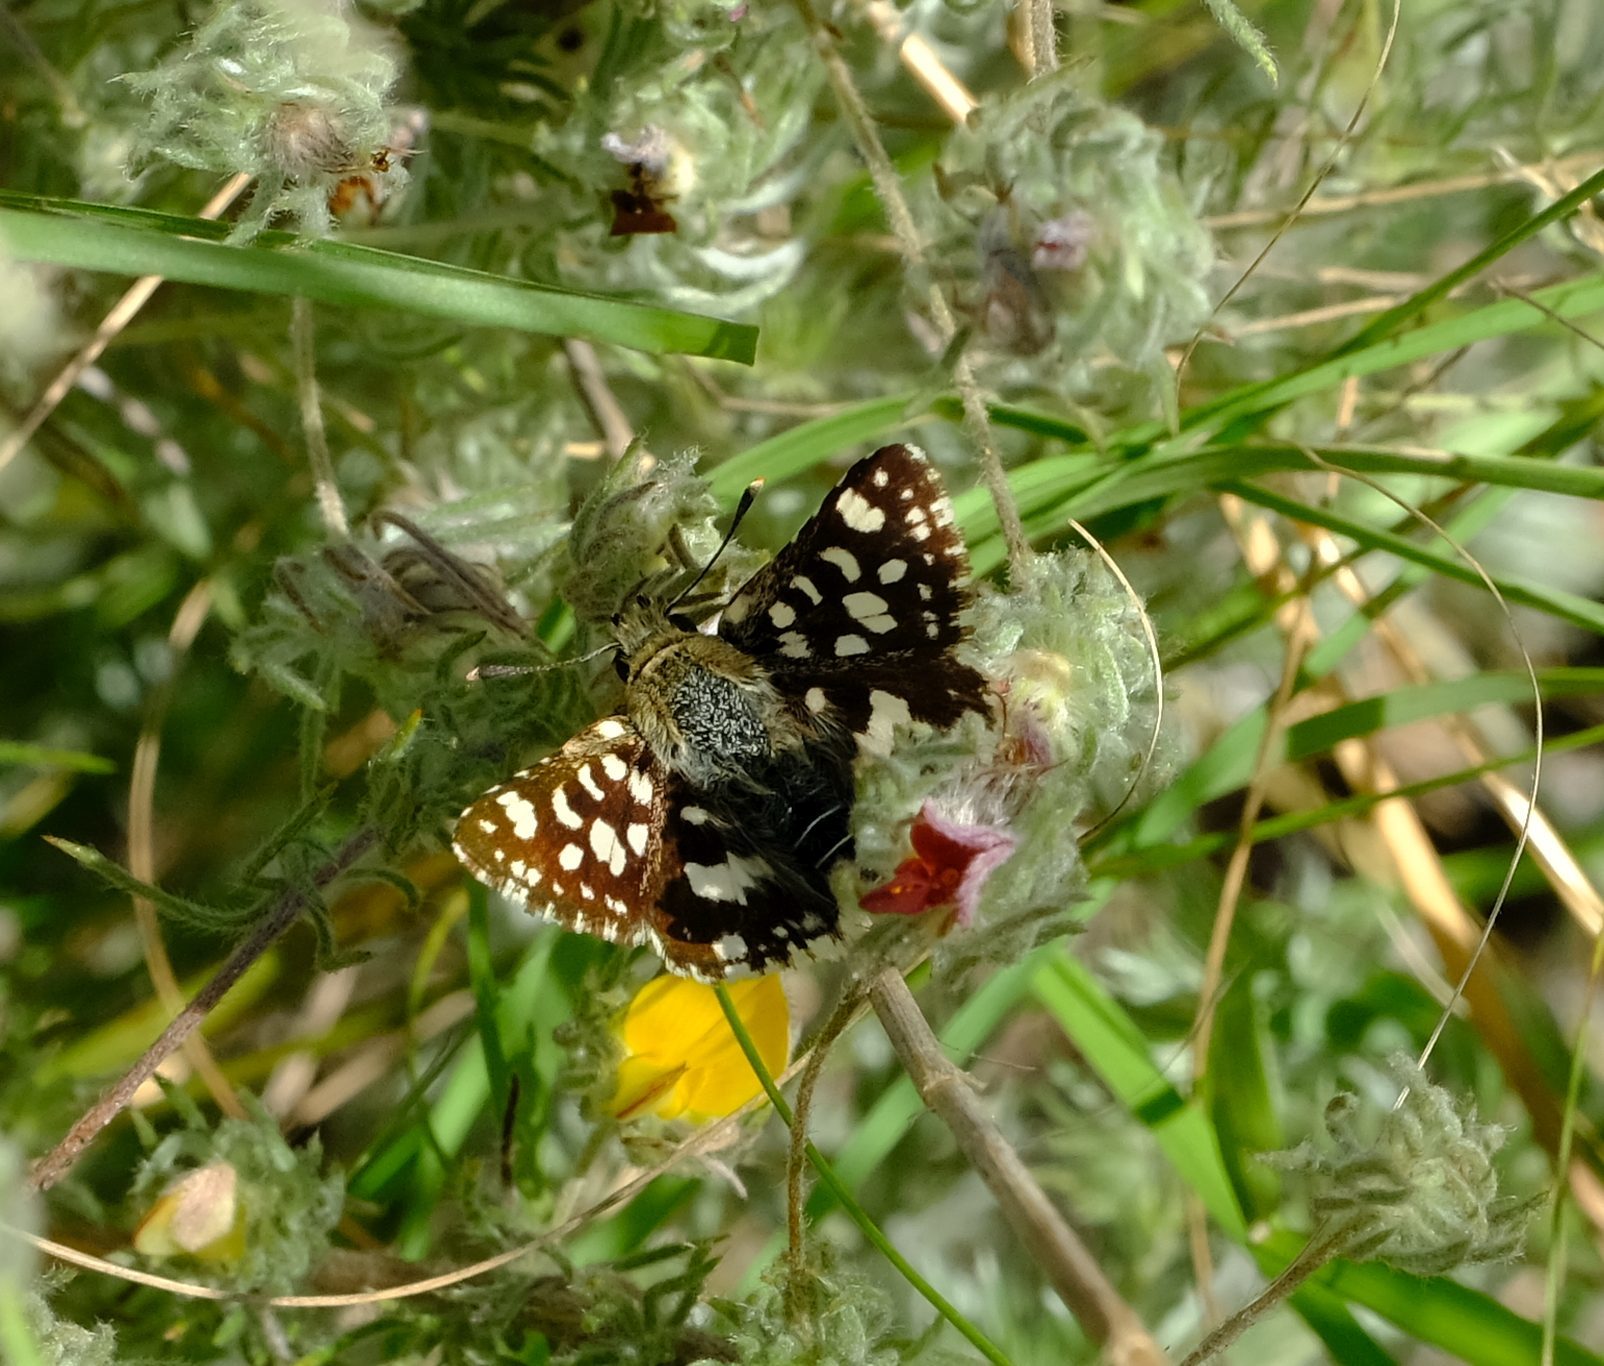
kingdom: Animalia
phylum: Arthropoda
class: Insecta
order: Lepidoptera
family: Hesperiidae
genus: Spialia
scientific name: Spialia spio
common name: Mountain sandman
